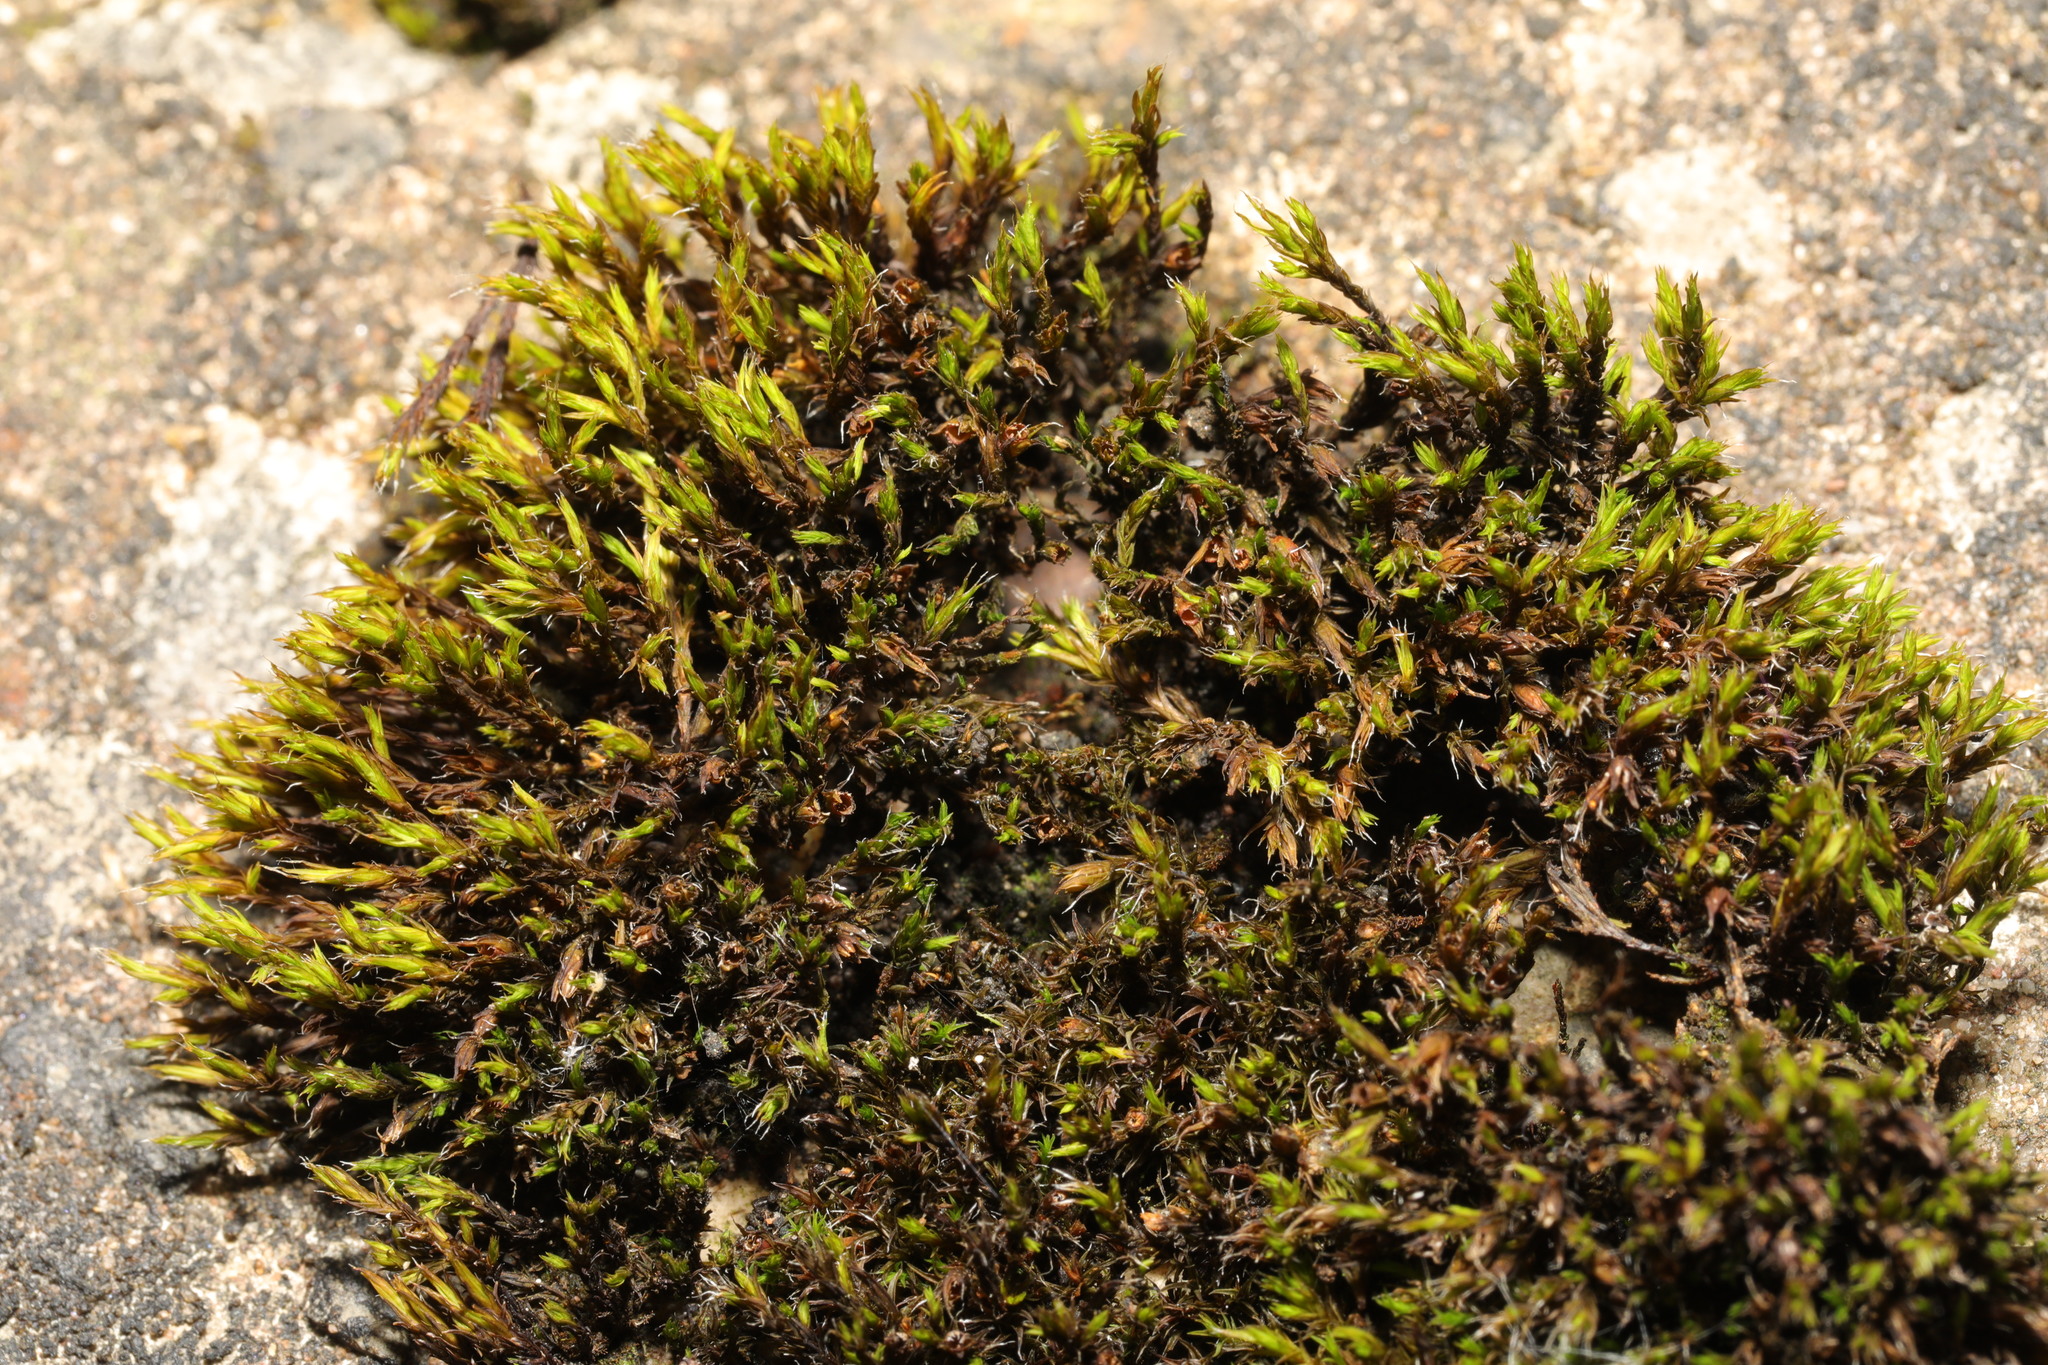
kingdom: Plantae
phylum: Bryophyta
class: Bryopsida
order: Grimmiales
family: Grimmiaceae
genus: Schistidium
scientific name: Schistidium crassipilum
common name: Thickpoint bloom moss
